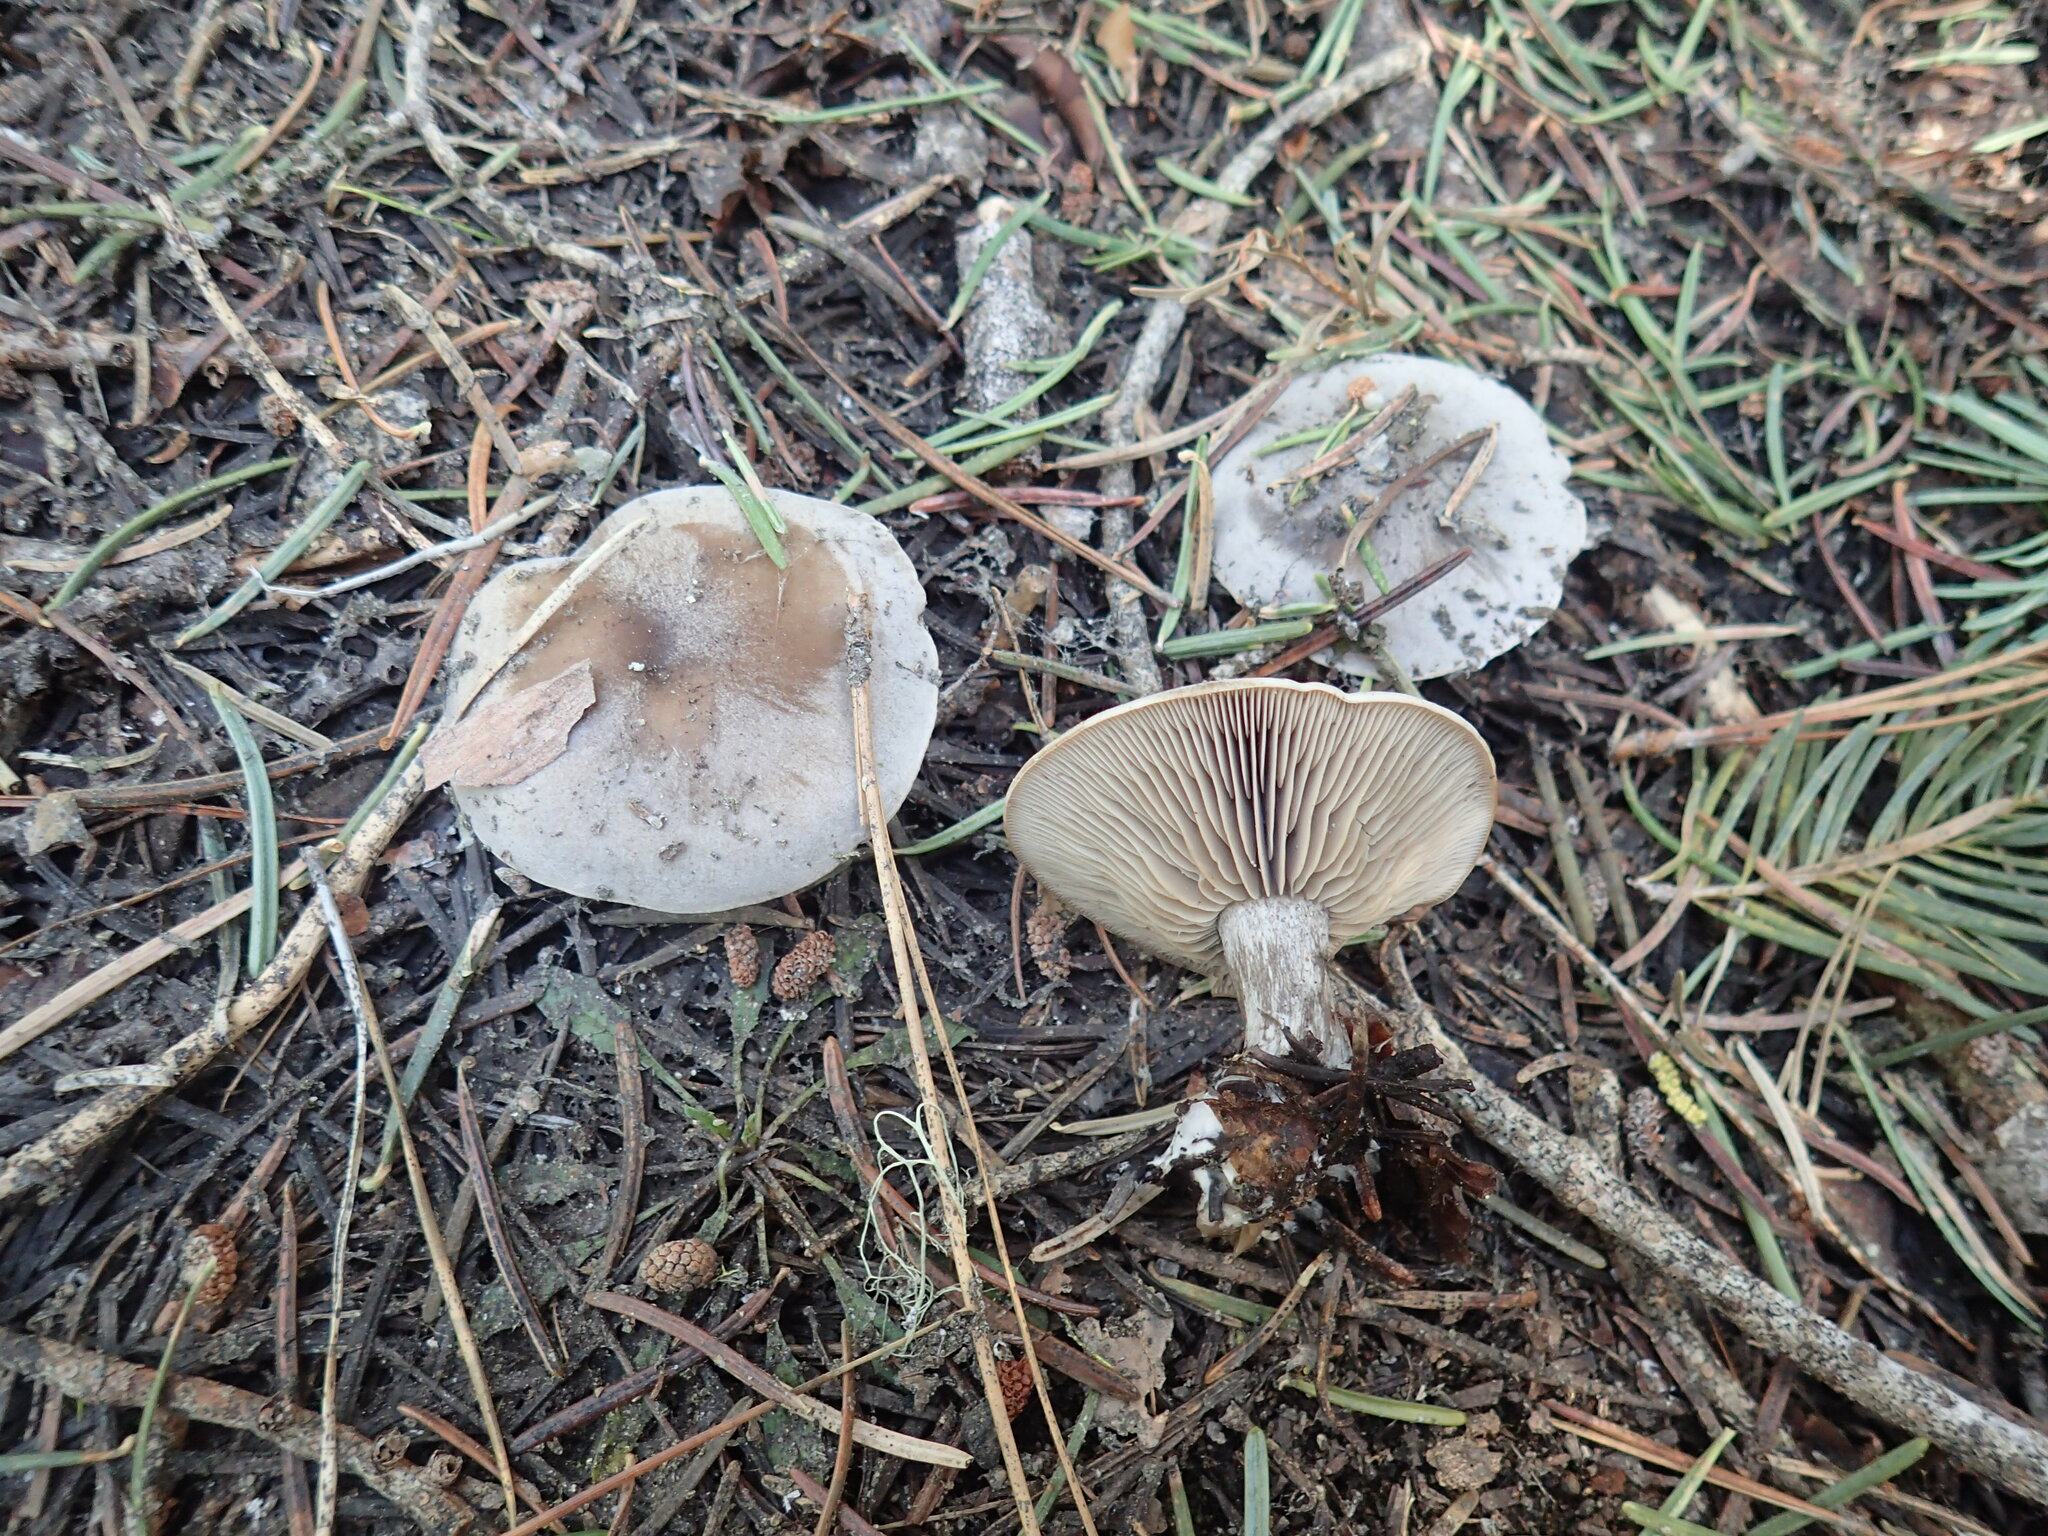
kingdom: Fungi
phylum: Basidiomycota
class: Agaricomycetes
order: Agaricales
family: Tricholomataceae
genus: Clitocybe
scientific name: Clitocybe glacialis
